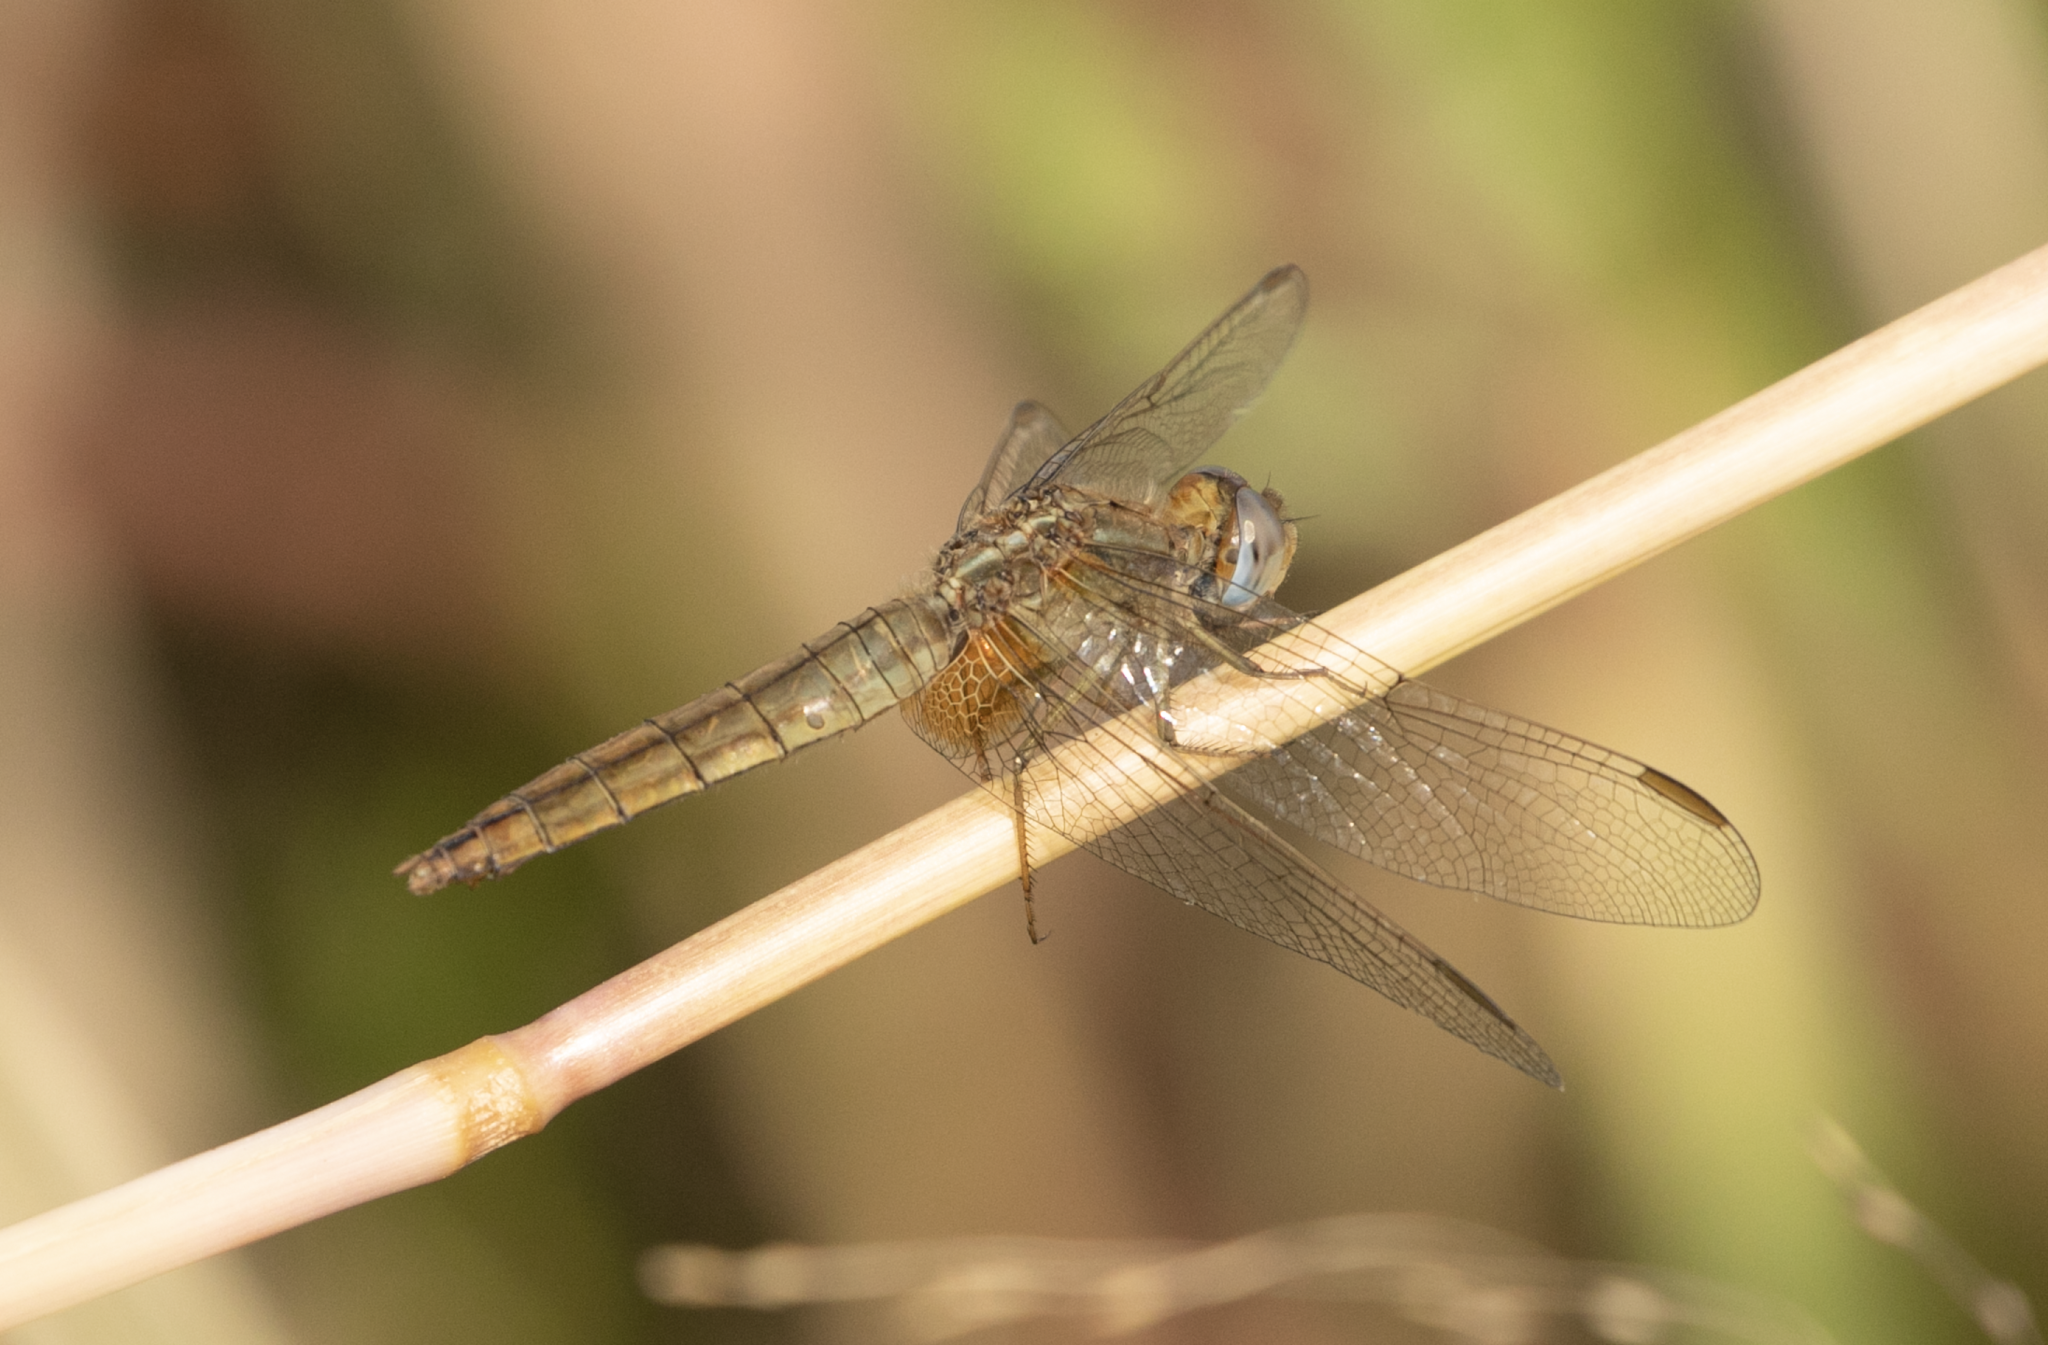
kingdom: Animalia
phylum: Arthropoda
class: Insecta
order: Odonata
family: Libellulidae
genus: Crocothemis
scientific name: Crocothemis erythraea
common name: Scarlet dragonfly
